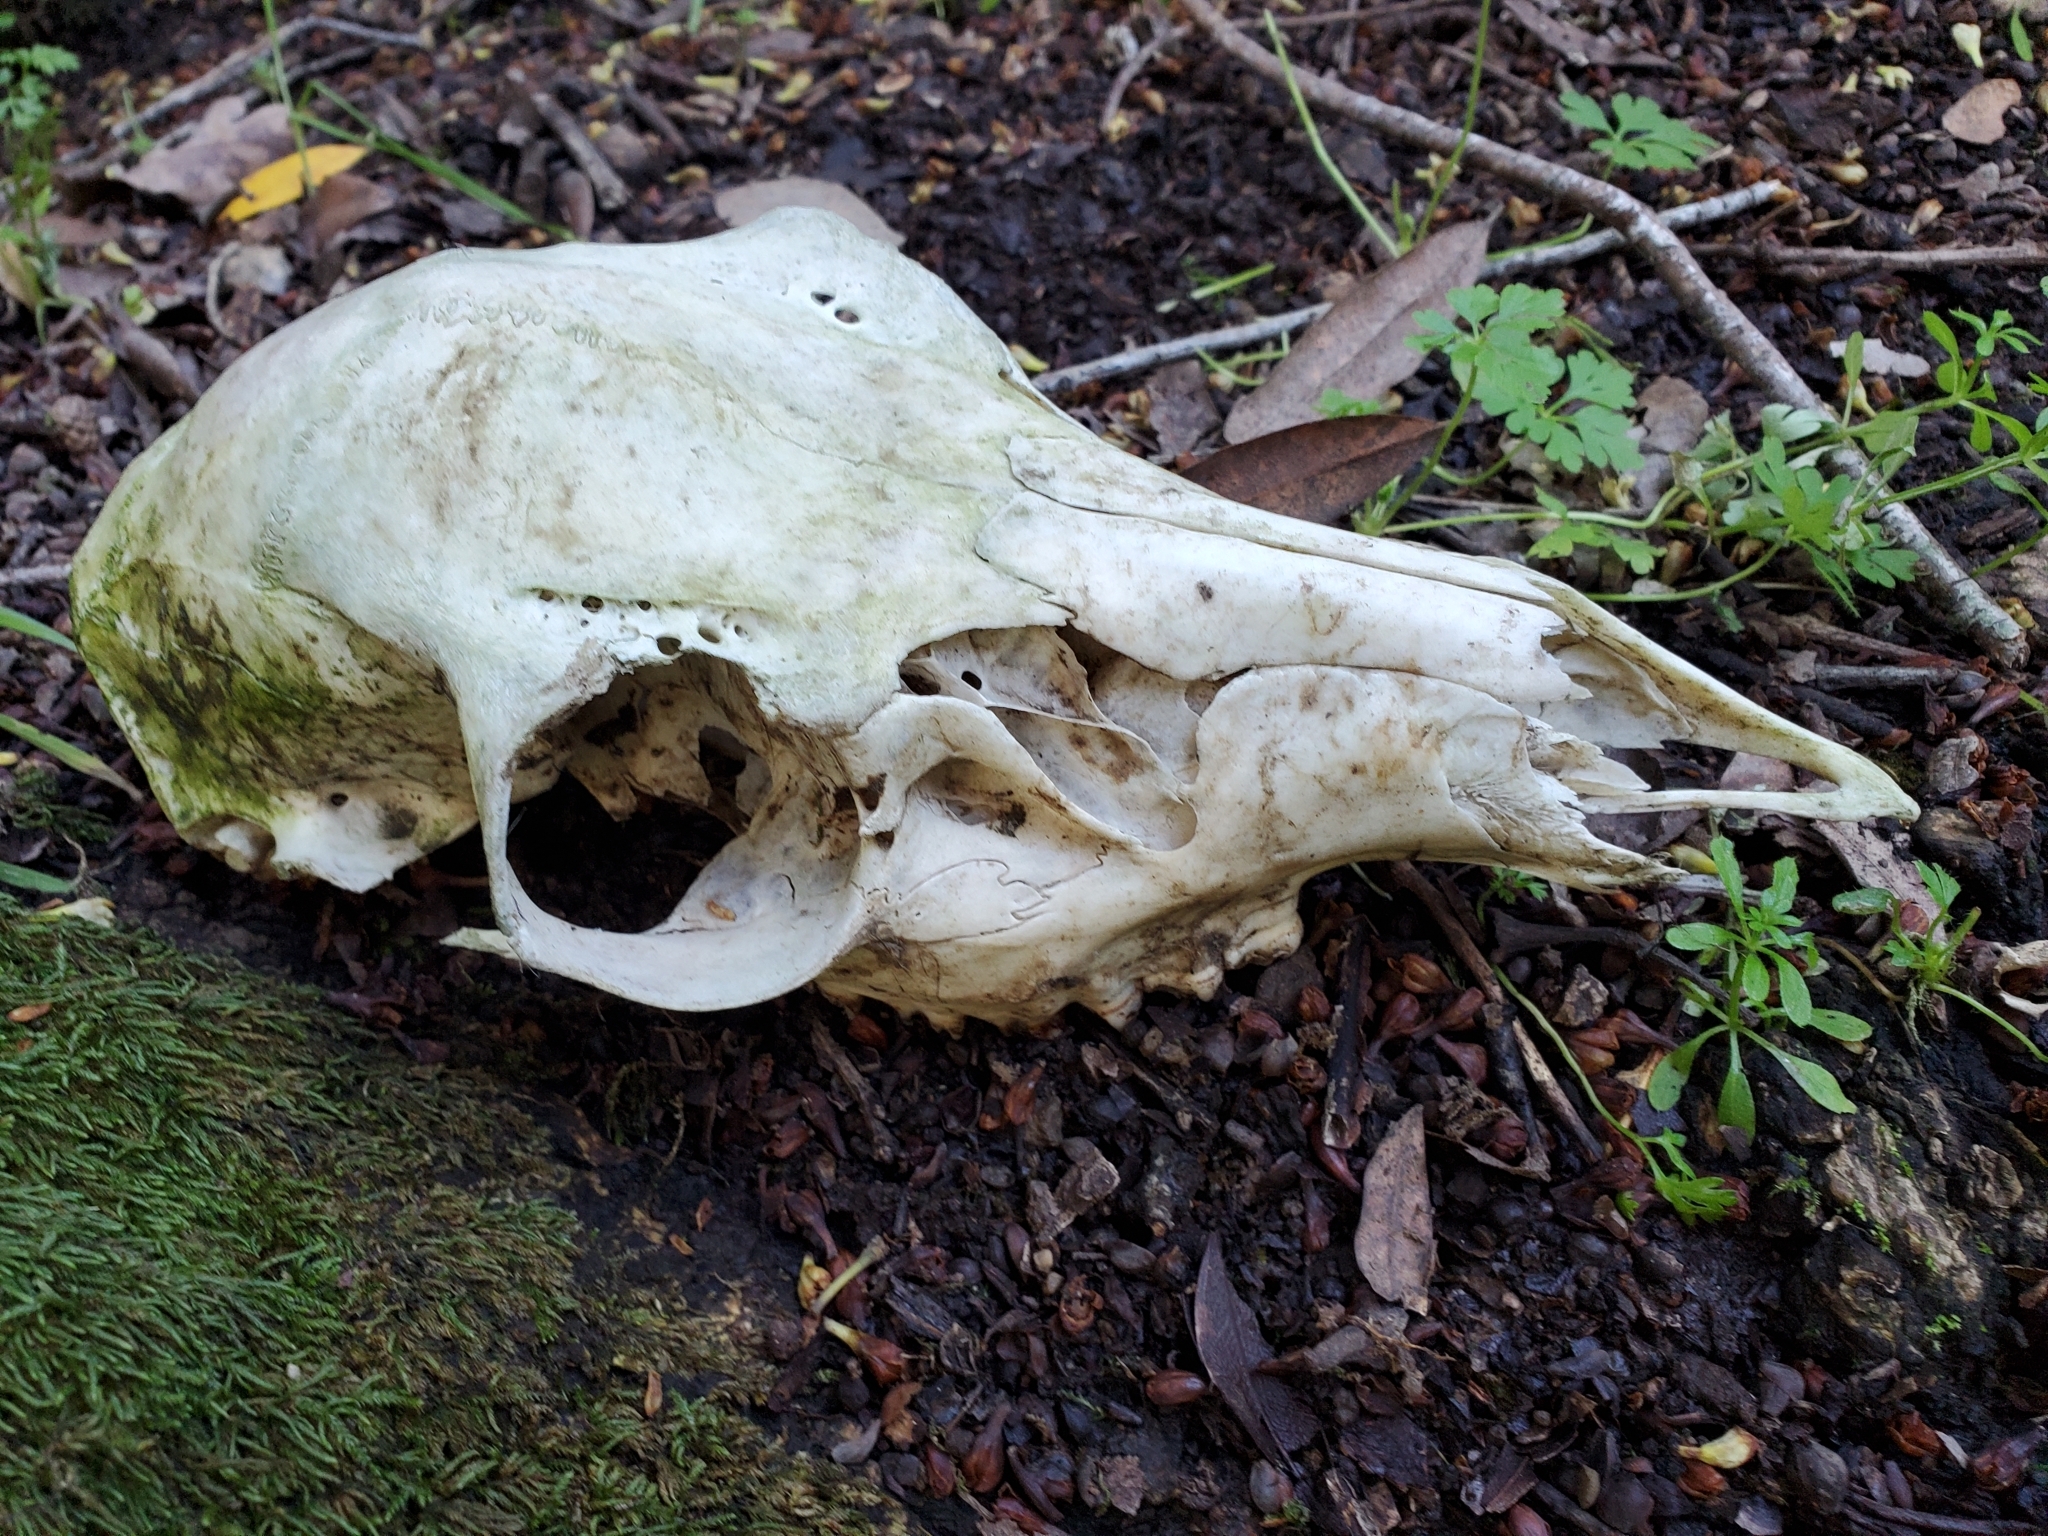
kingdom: Animalia
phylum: Chordata
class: Mammalia
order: Artiodactyla
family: Cervidae
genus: Odocoileus
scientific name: Odocoileus hemionus
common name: Mule deer
